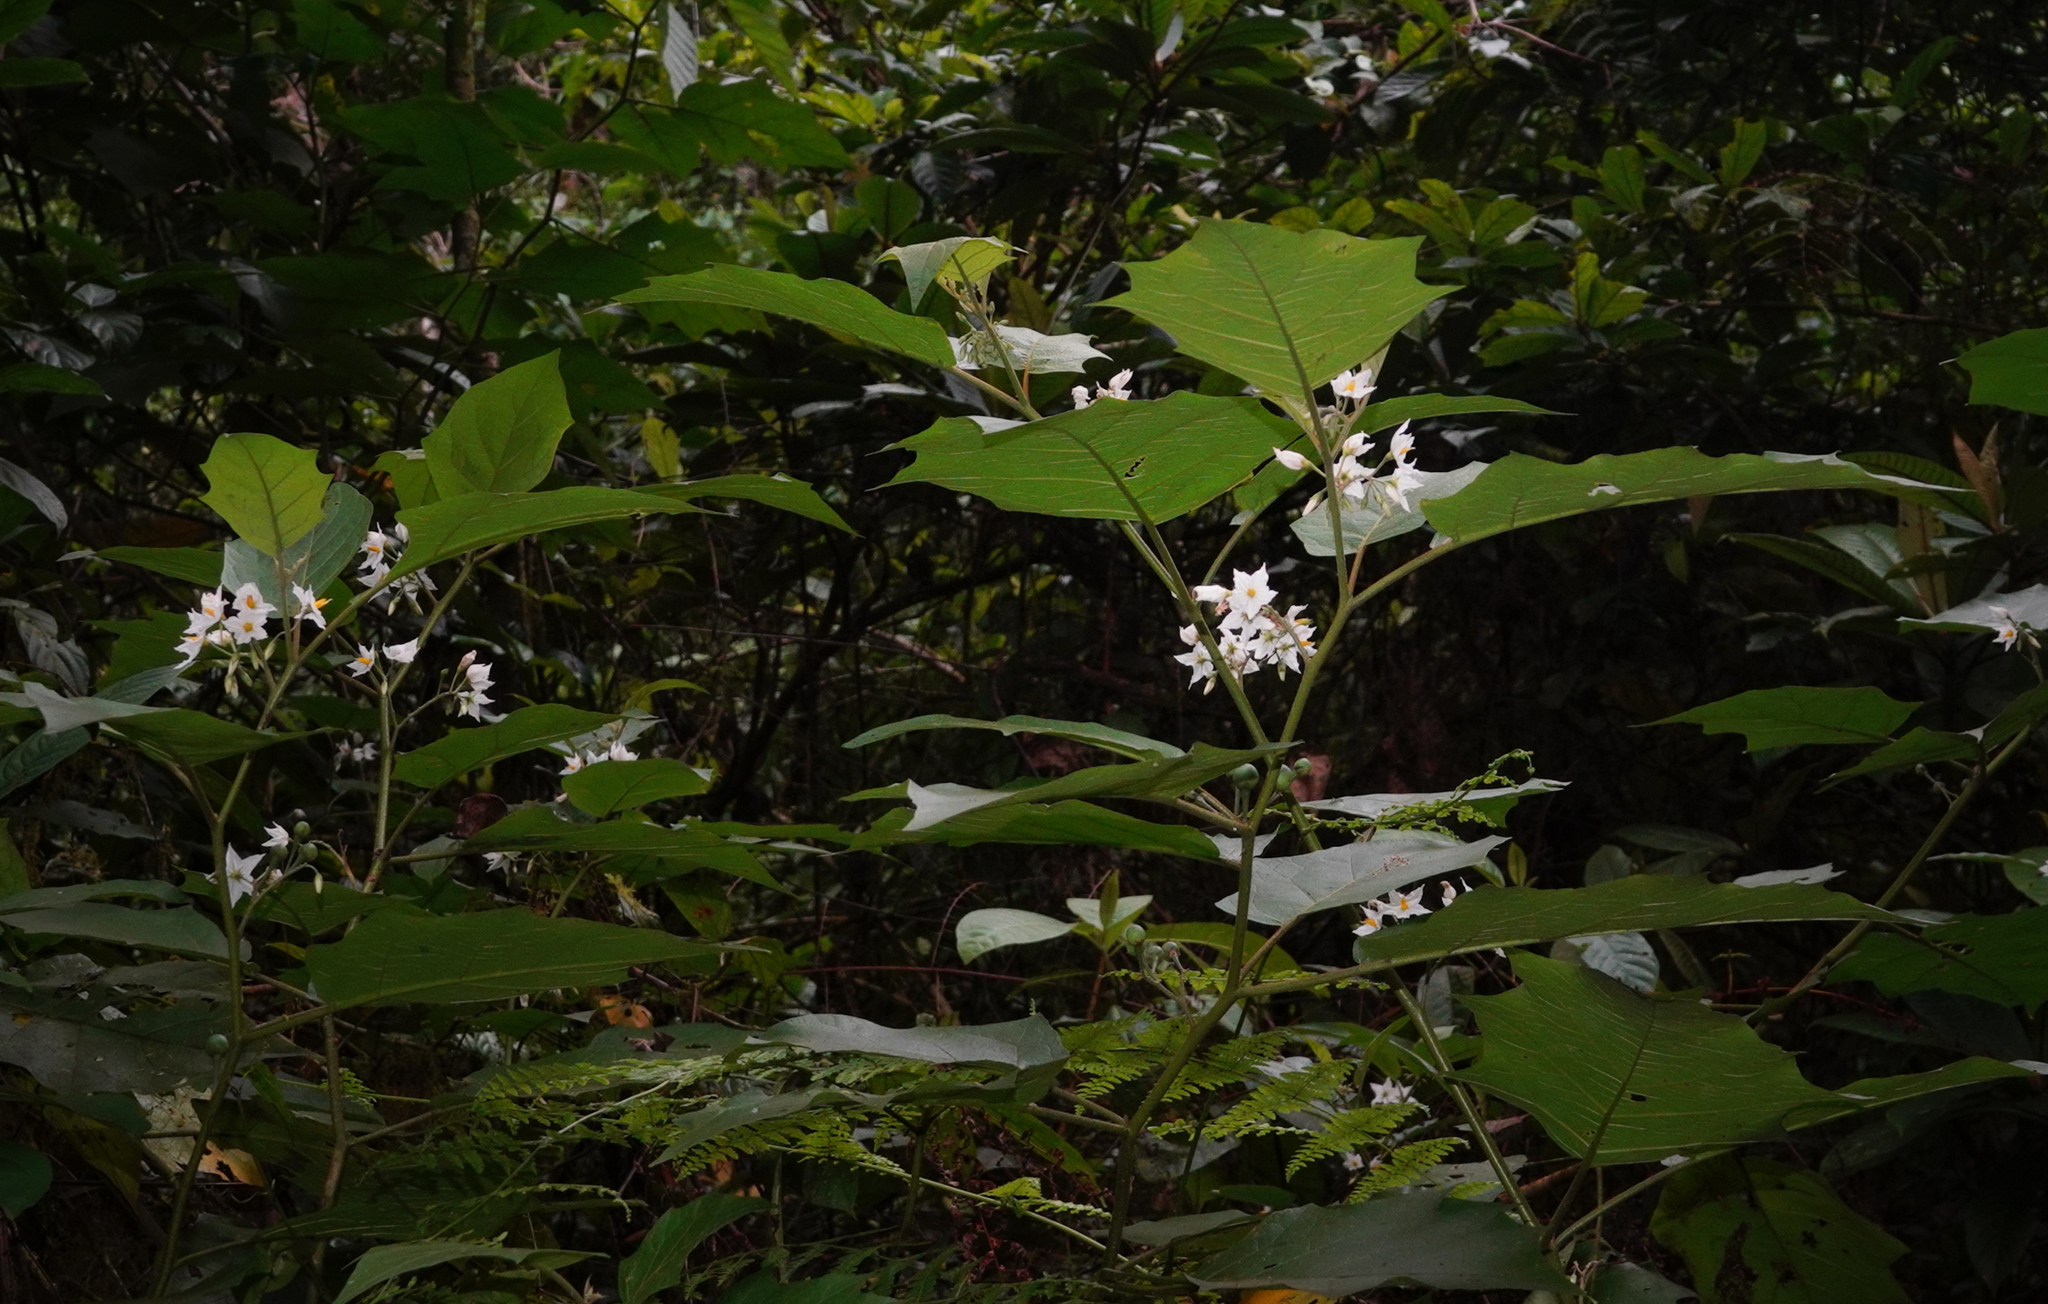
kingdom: Plantae
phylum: Tracheophyta
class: Magnoliopsida
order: Solanales
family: Solanaceae
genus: Solanum
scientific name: Solanum torvum
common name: Turkey berry
